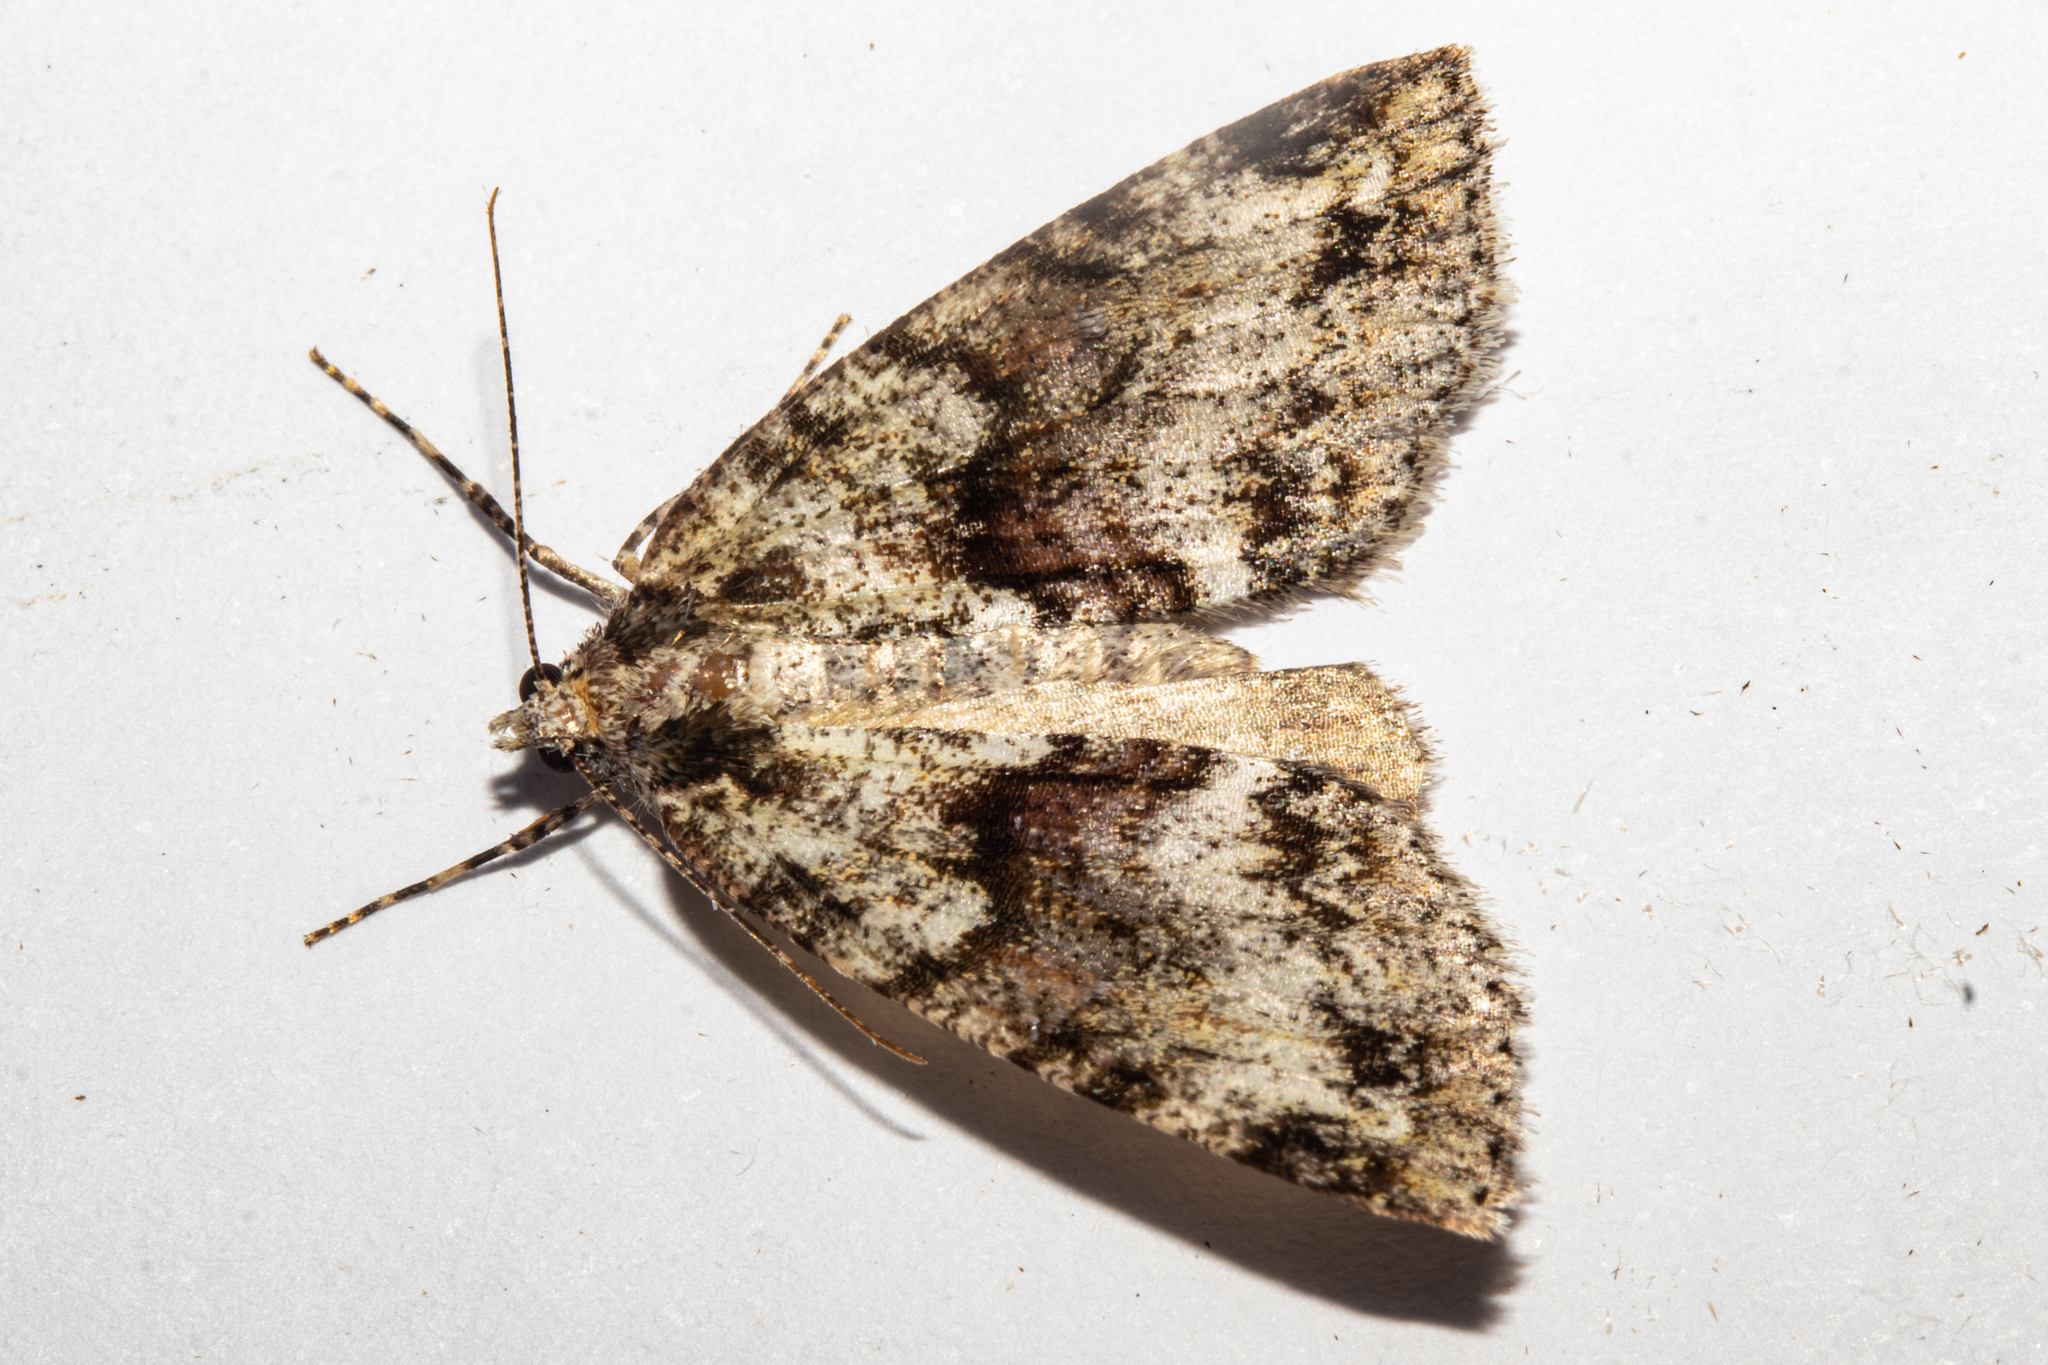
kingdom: Animalia
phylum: Arthropoda
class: Insecta
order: Lepidoptera
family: Geometridae
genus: Pseudocoremia
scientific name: Pseudocoremia suavis
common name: Common forest looper
